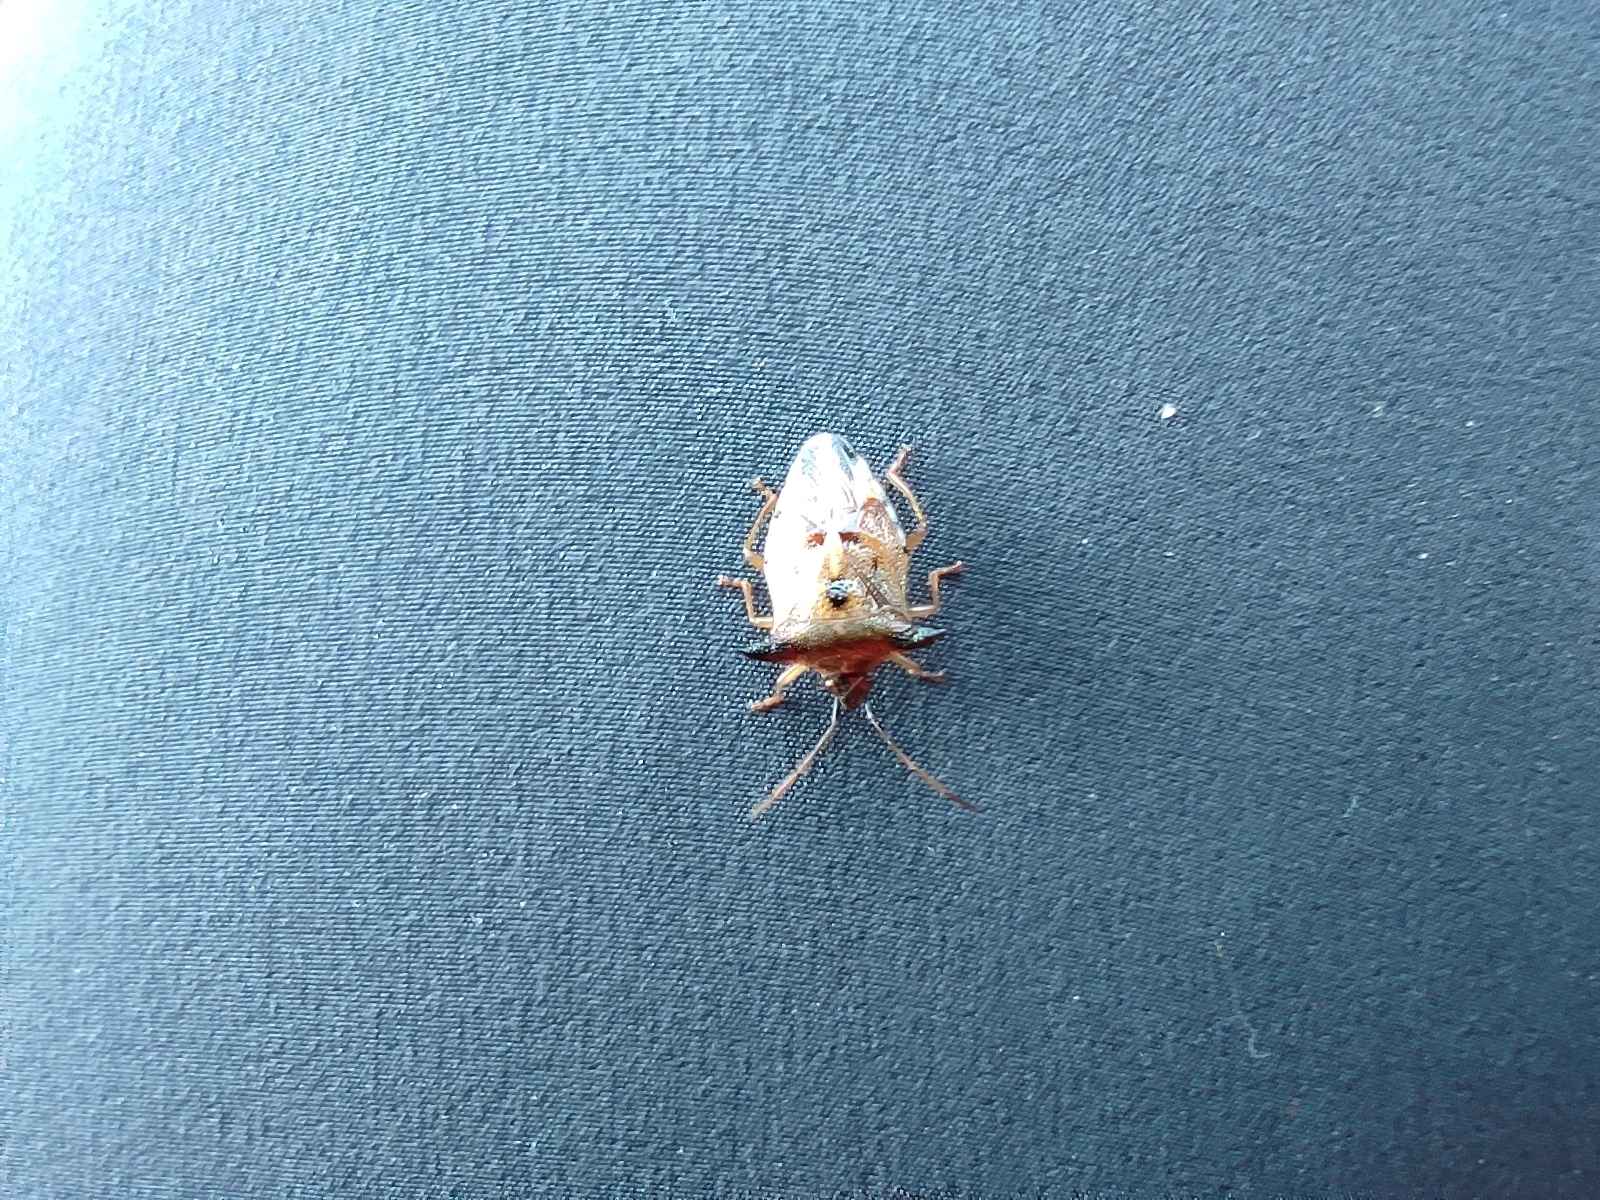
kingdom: Animalia
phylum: Arthropoda
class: Insecta
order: Hemiptera
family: Acanthosomatidae
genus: Elasmucha
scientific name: Elasmucha ferrugata
